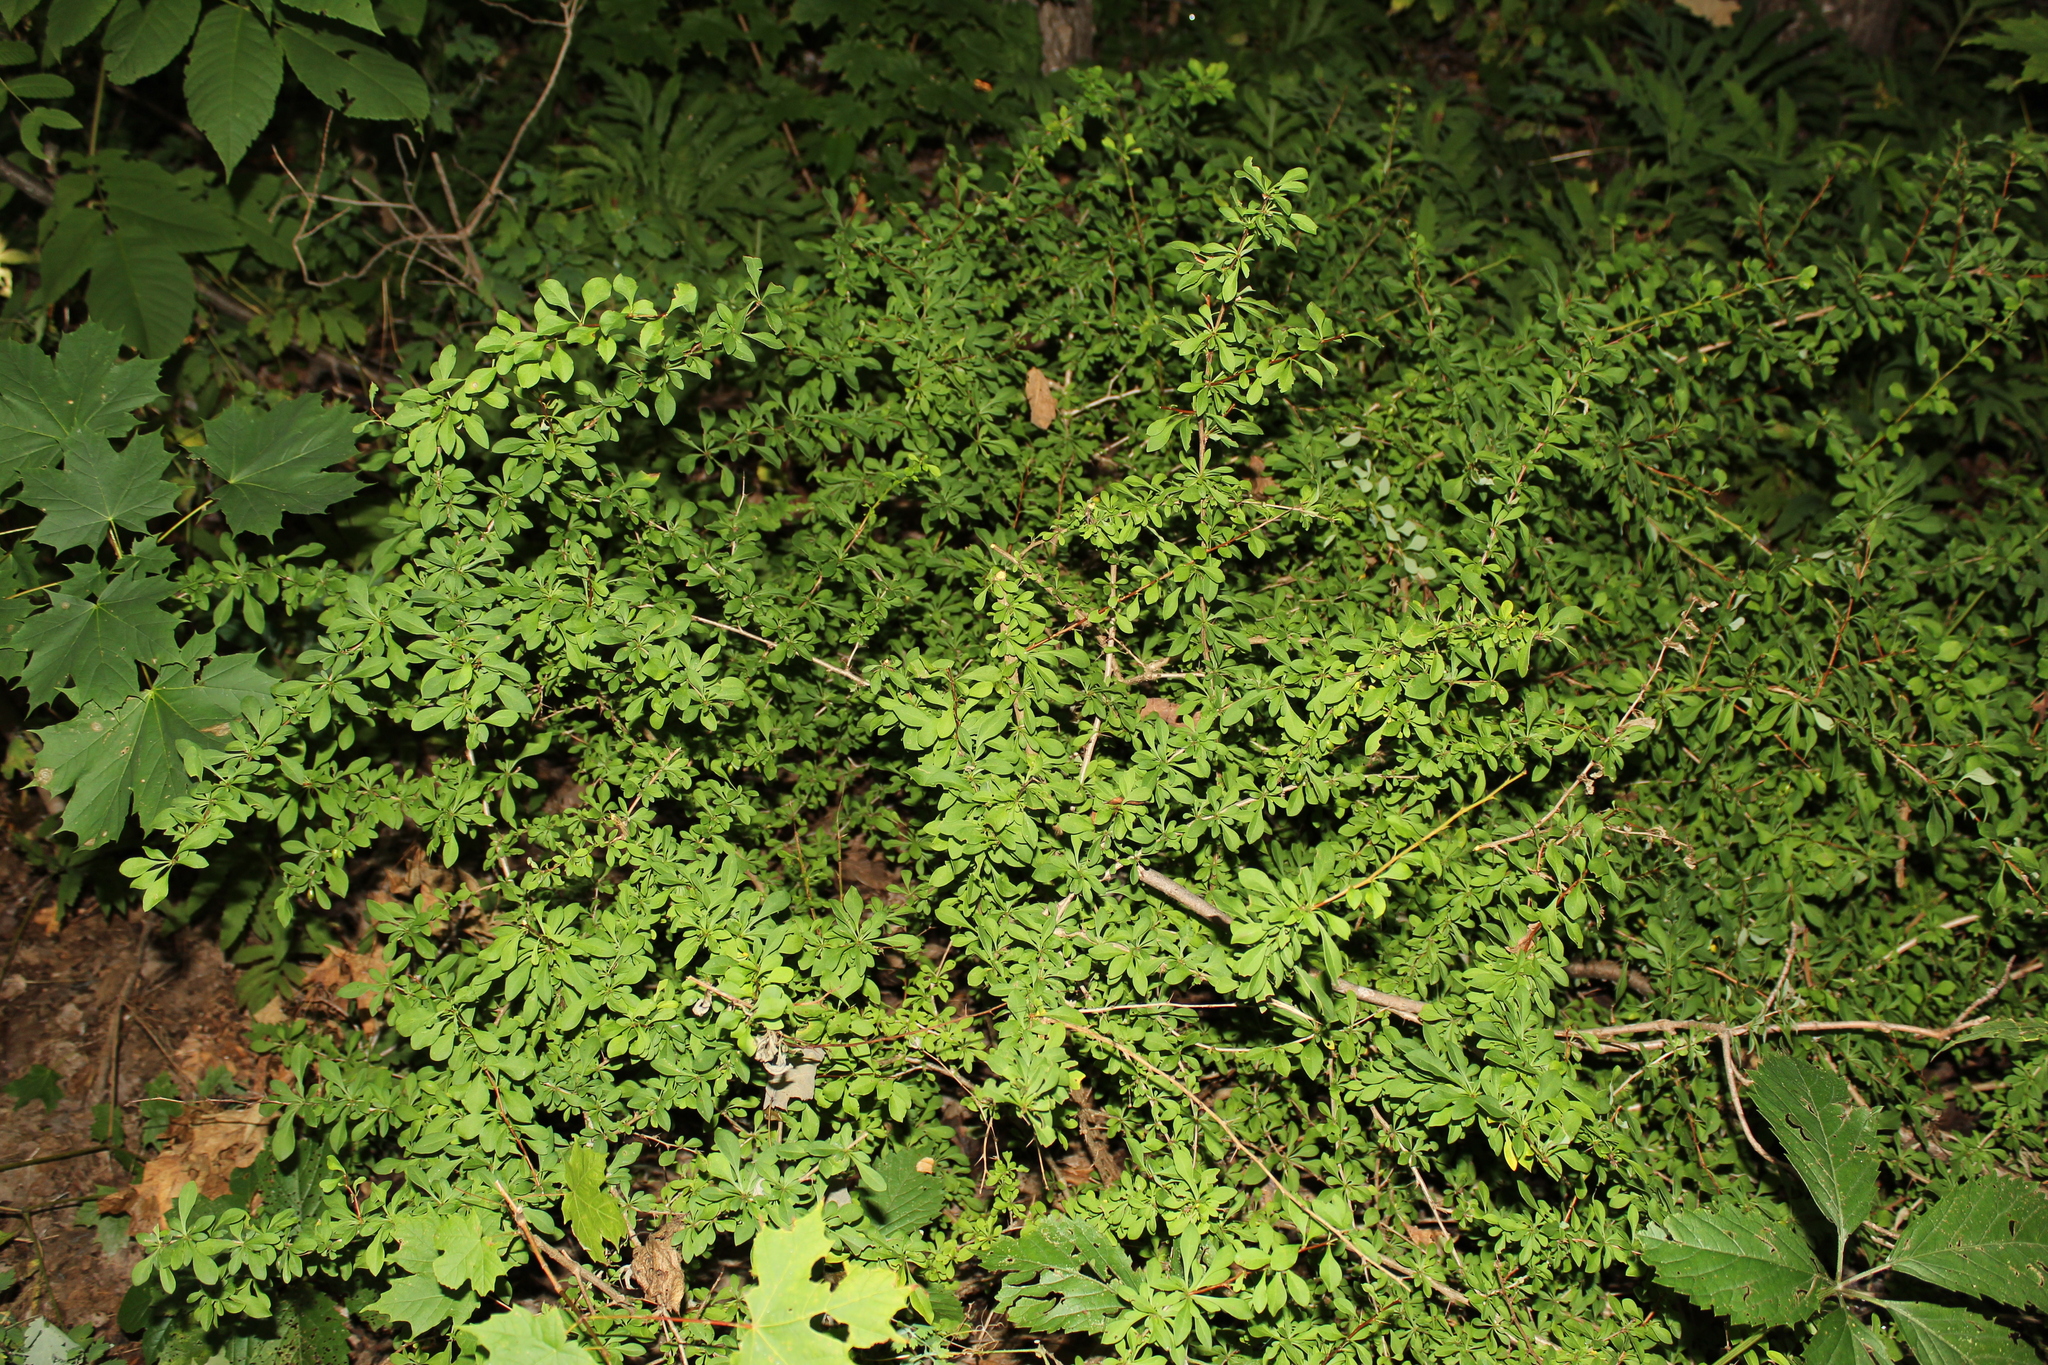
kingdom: Plantae
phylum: Tracheophyta
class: Magnoliopsida
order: Ranunculales
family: Berberidaceae
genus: Berberis
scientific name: Berberis thunbergii
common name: Japanese barberry
